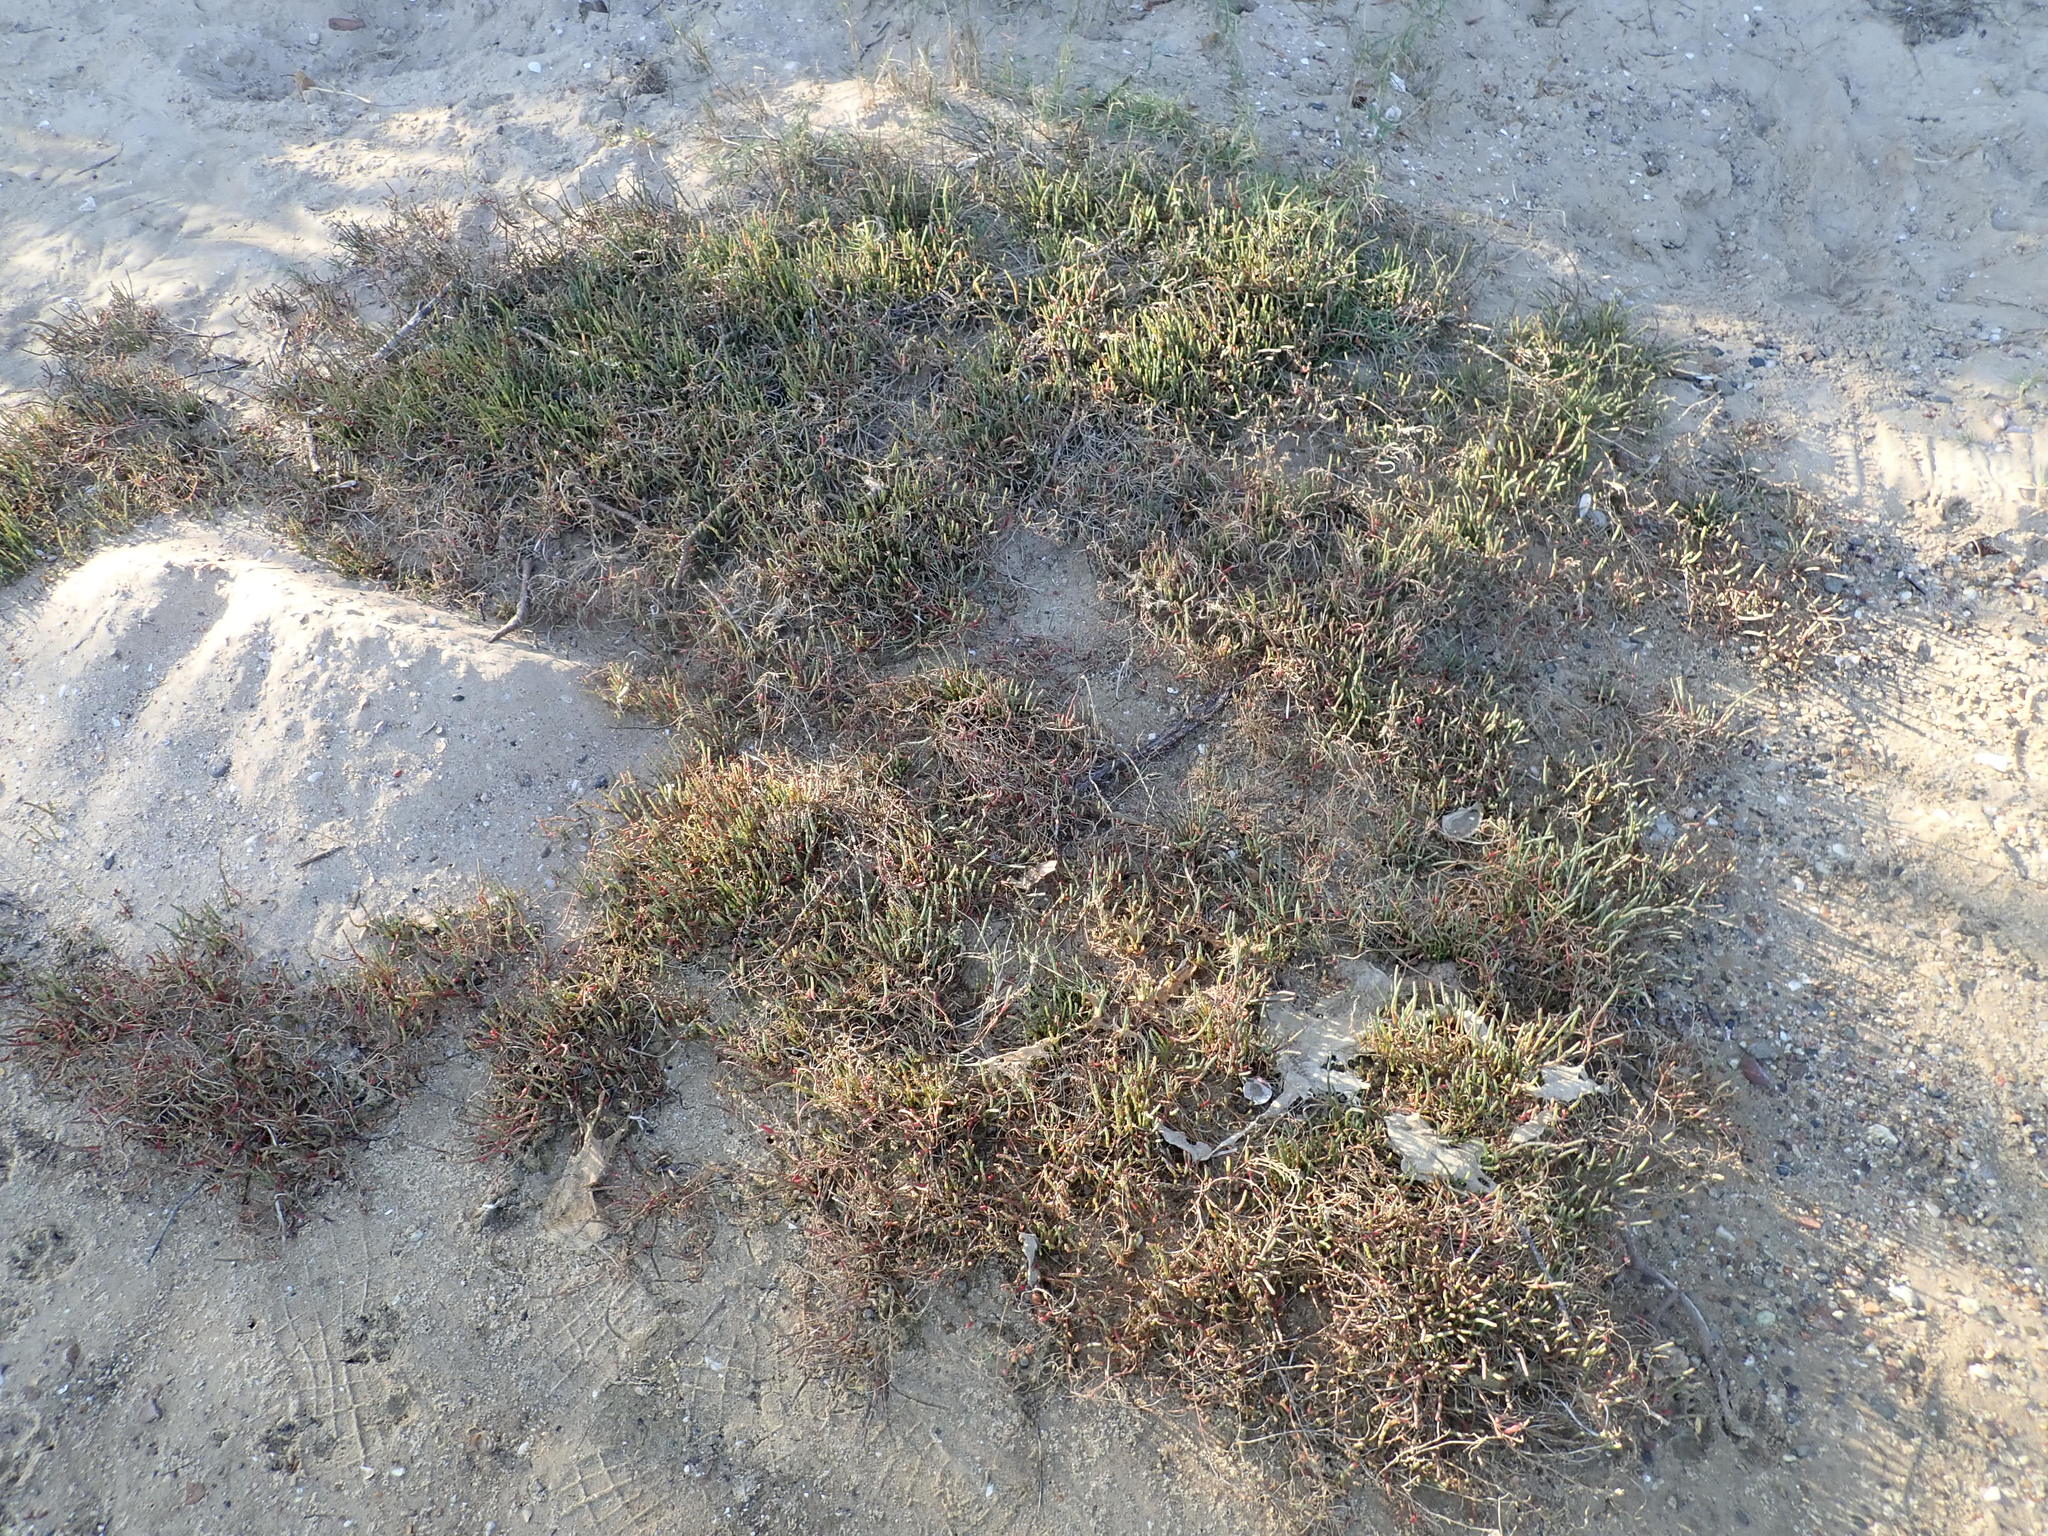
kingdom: Plantae
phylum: Tracheophyta
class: Magnoliopsida
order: Caryophyllales
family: Amaranthaceae
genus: Salicornia
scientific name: Salicornia quinqueflora
